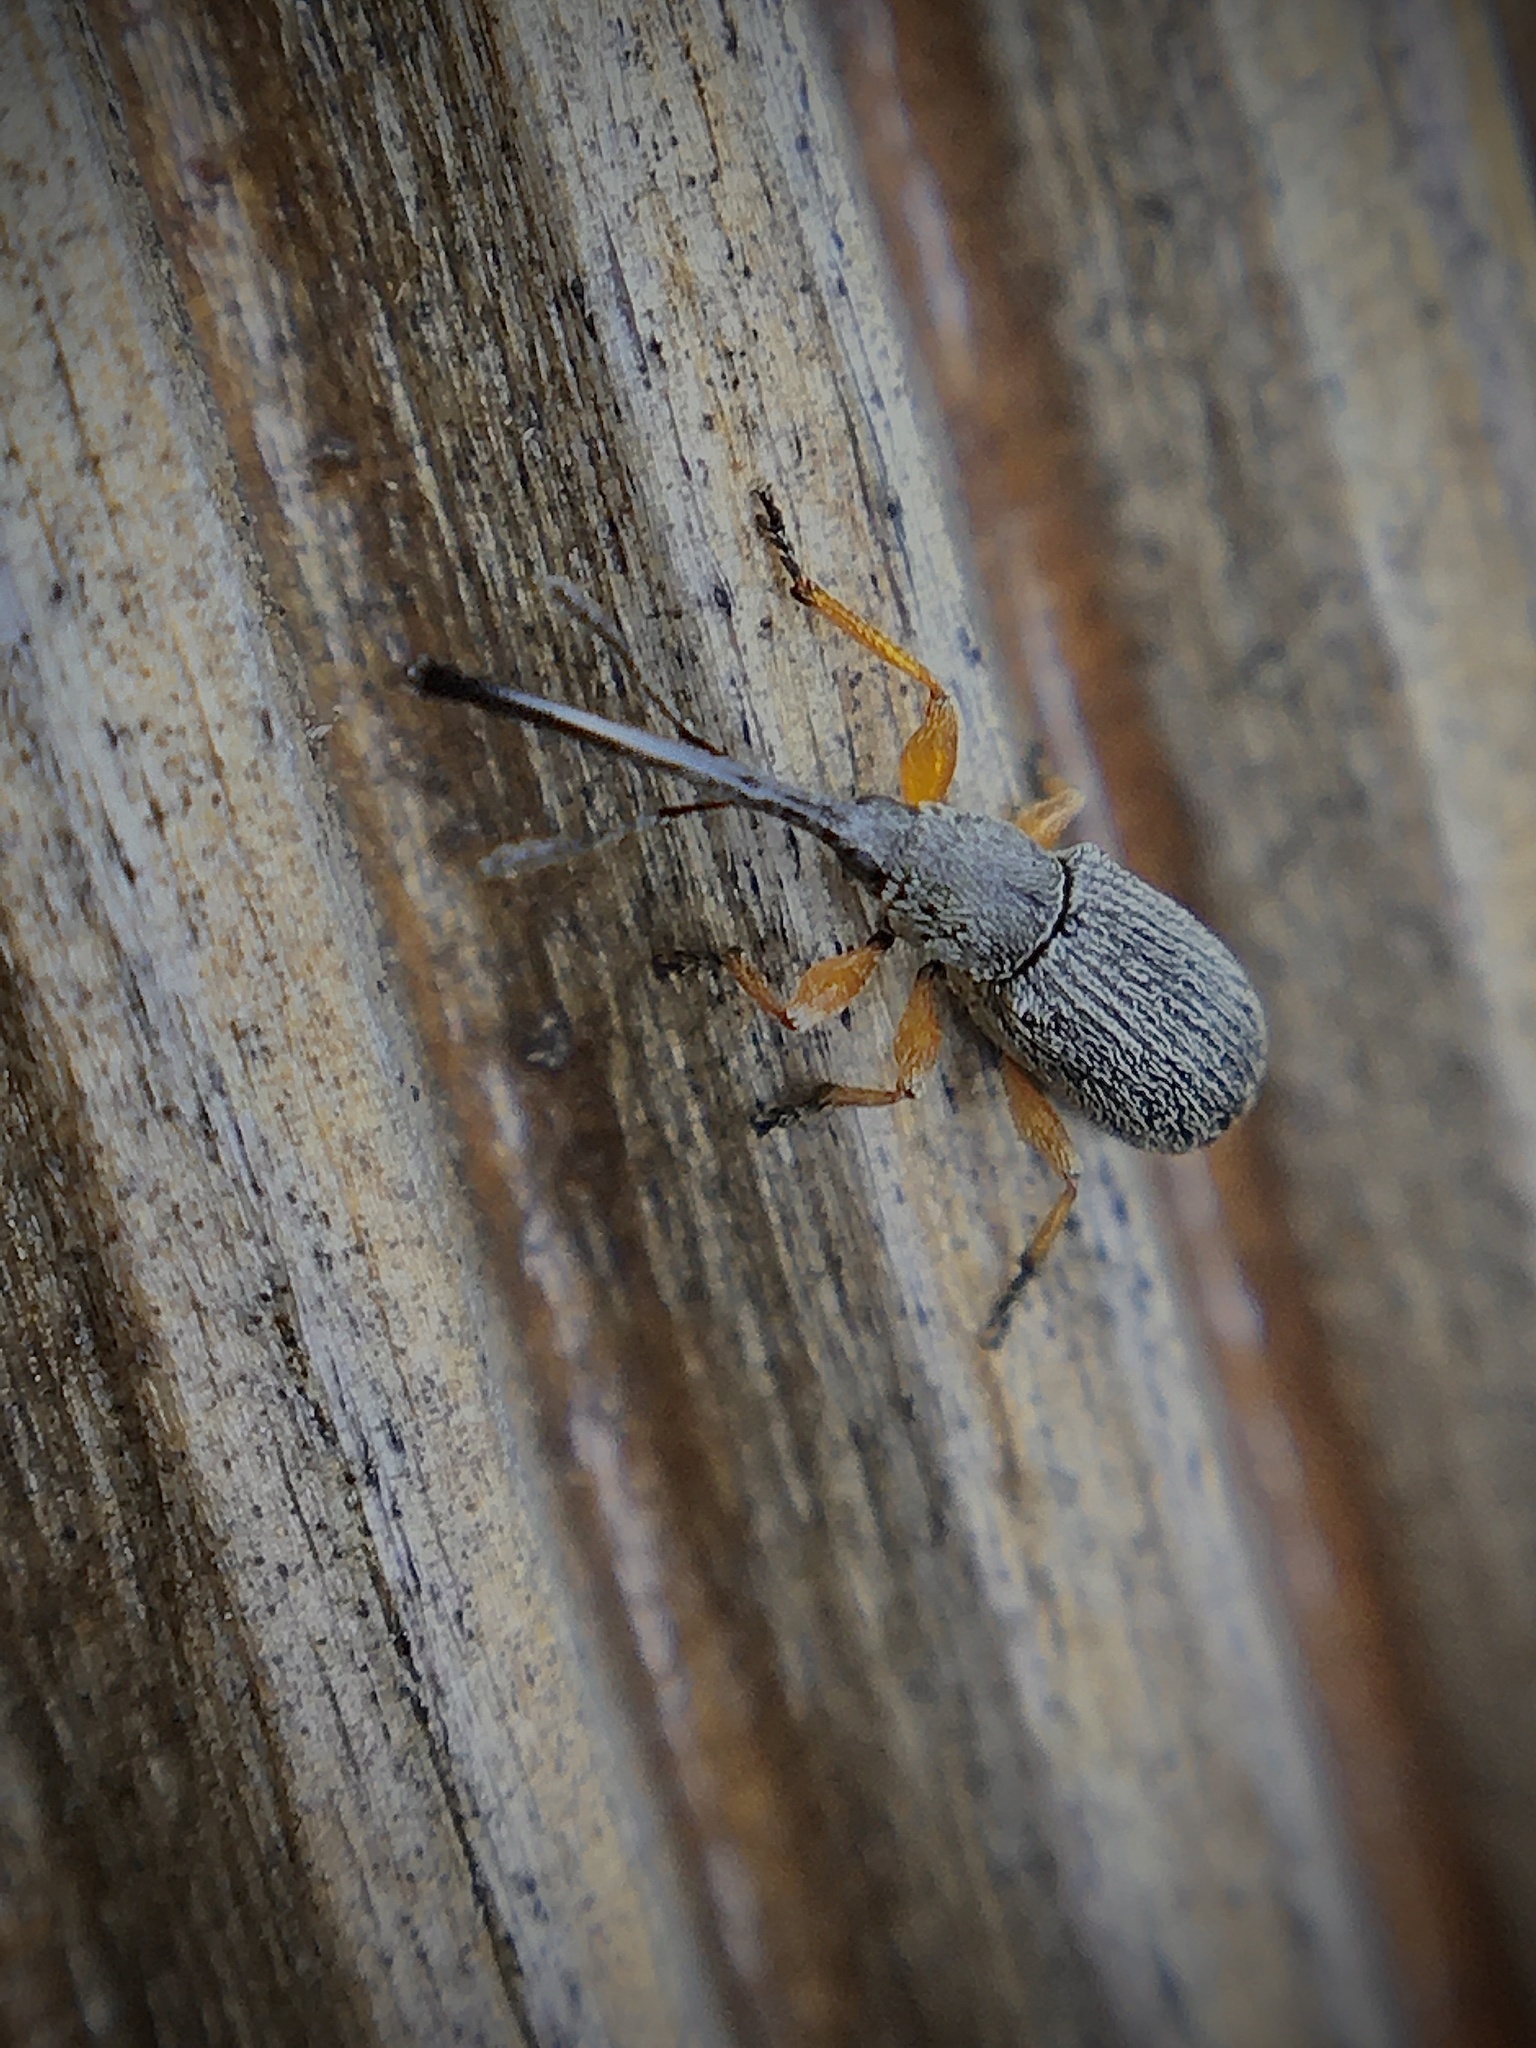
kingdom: Animalia
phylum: Arthropoda
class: Insecta
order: Coleoptera
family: Brentidae
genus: Rhopalapion
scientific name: Rhopalapion longirostre
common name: Hollyhock weevil
